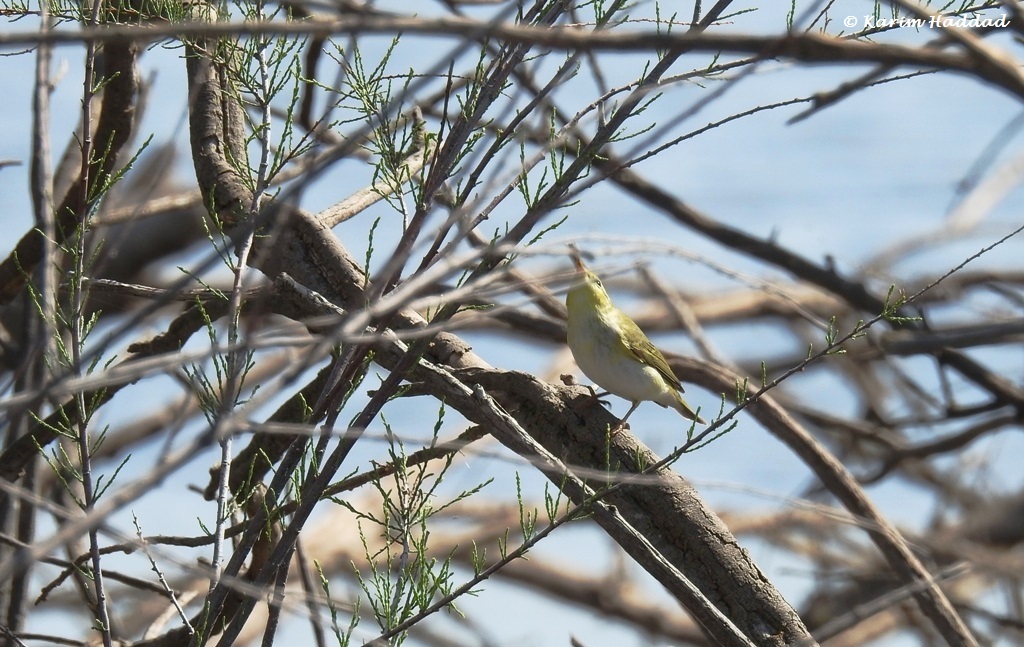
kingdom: Animalia
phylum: Chordata
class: Aves
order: Passeriformes
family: Phylloscopidae
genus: Phylloscopus
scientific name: Phylloscopus sibillatrix
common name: Wood warbler
